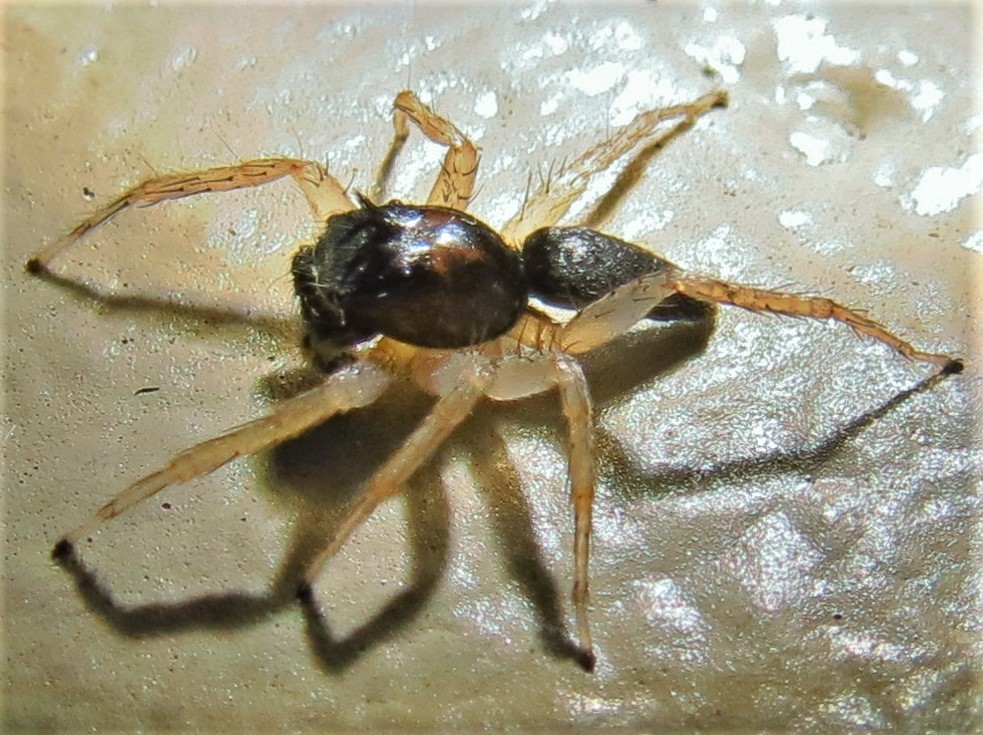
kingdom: Animalia
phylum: Arthropoda
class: Arachnida
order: Araneae
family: Salticidae
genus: Maevia
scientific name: Maevia inclemens
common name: Dimorphic jumper
